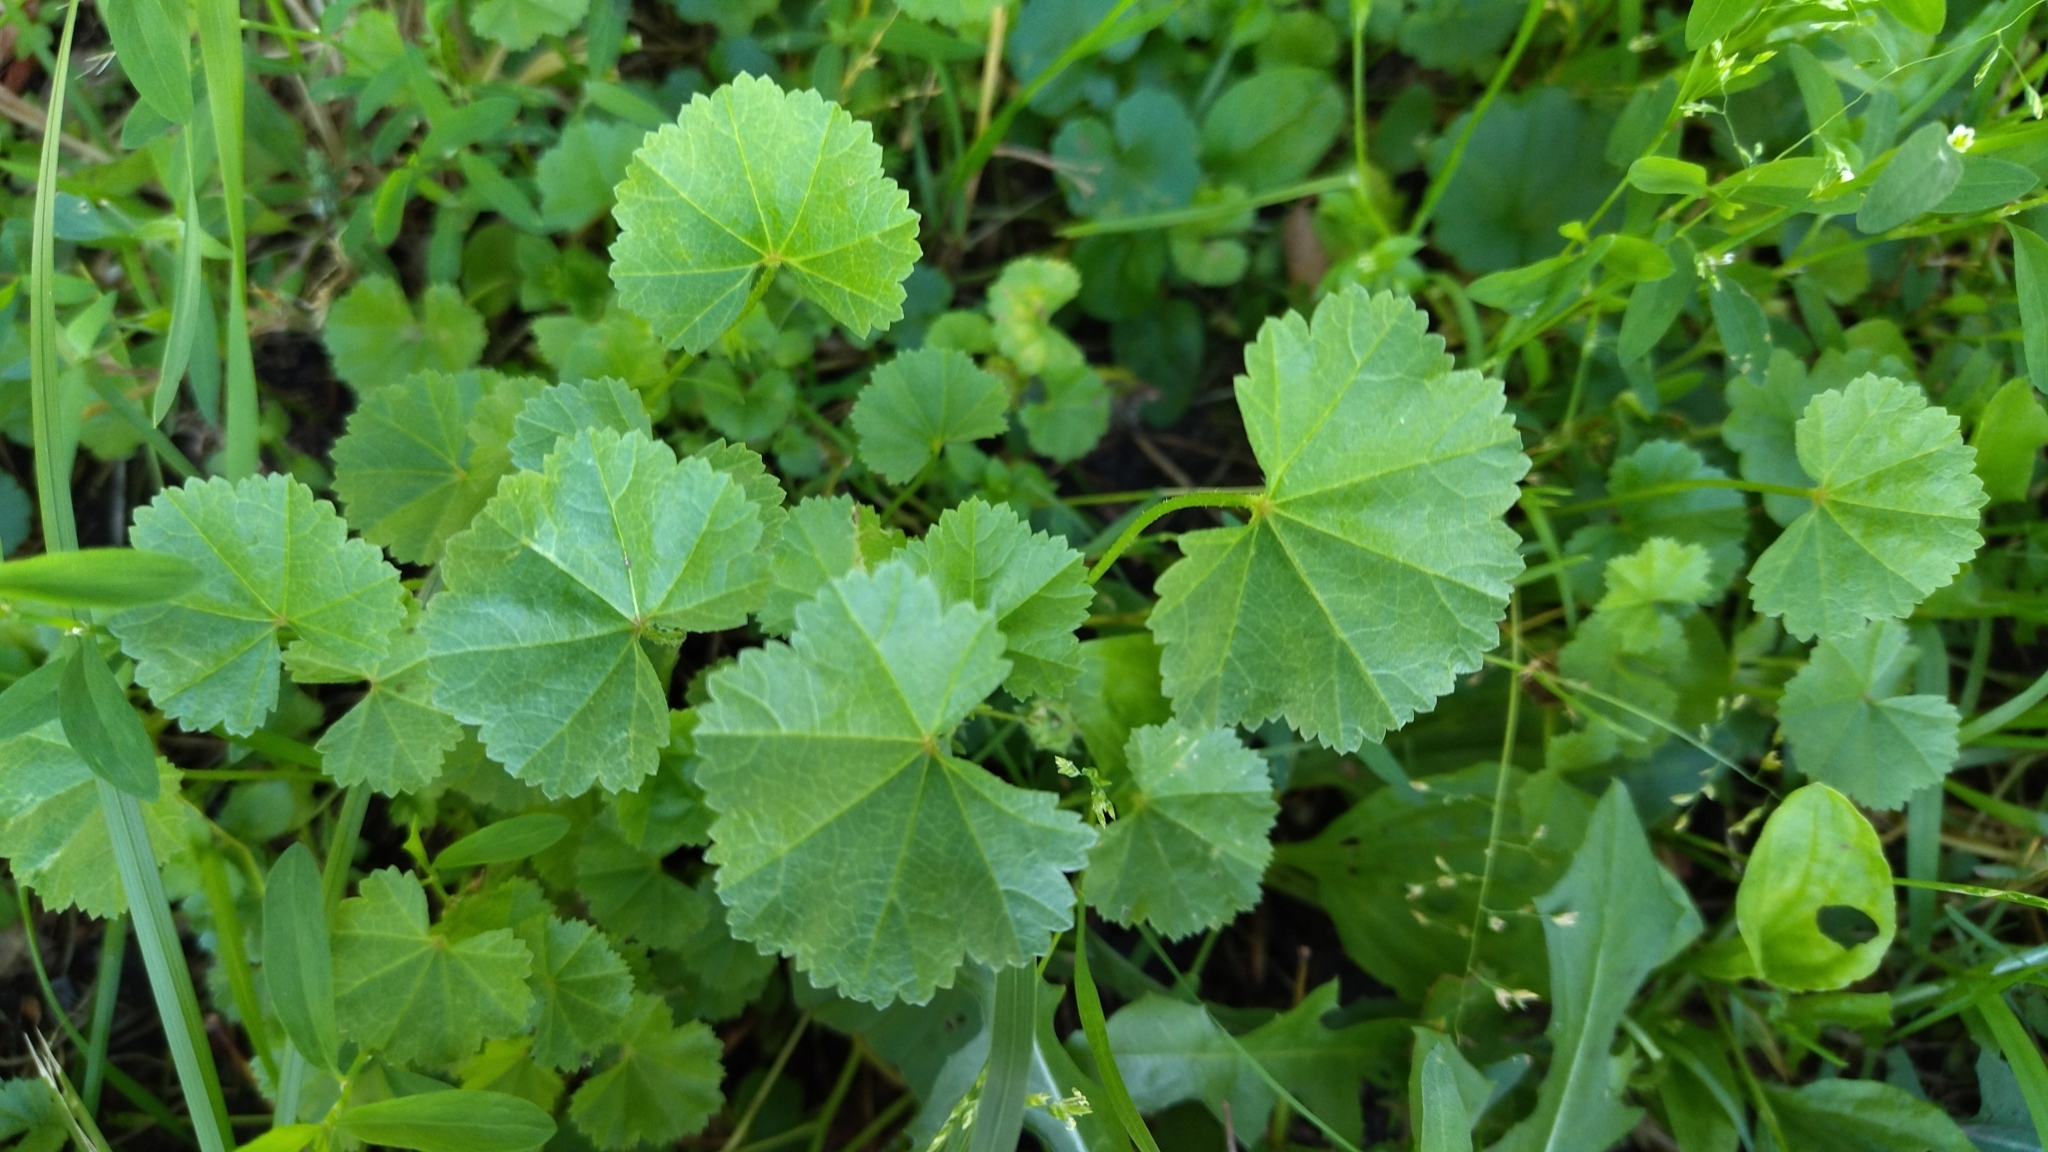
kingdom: Plantae
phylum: Tracheophyta
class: Magnoliopsida
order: Malvales
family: Malvaceae
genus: Malva
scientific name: Malva pusilla
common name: Small mallow
